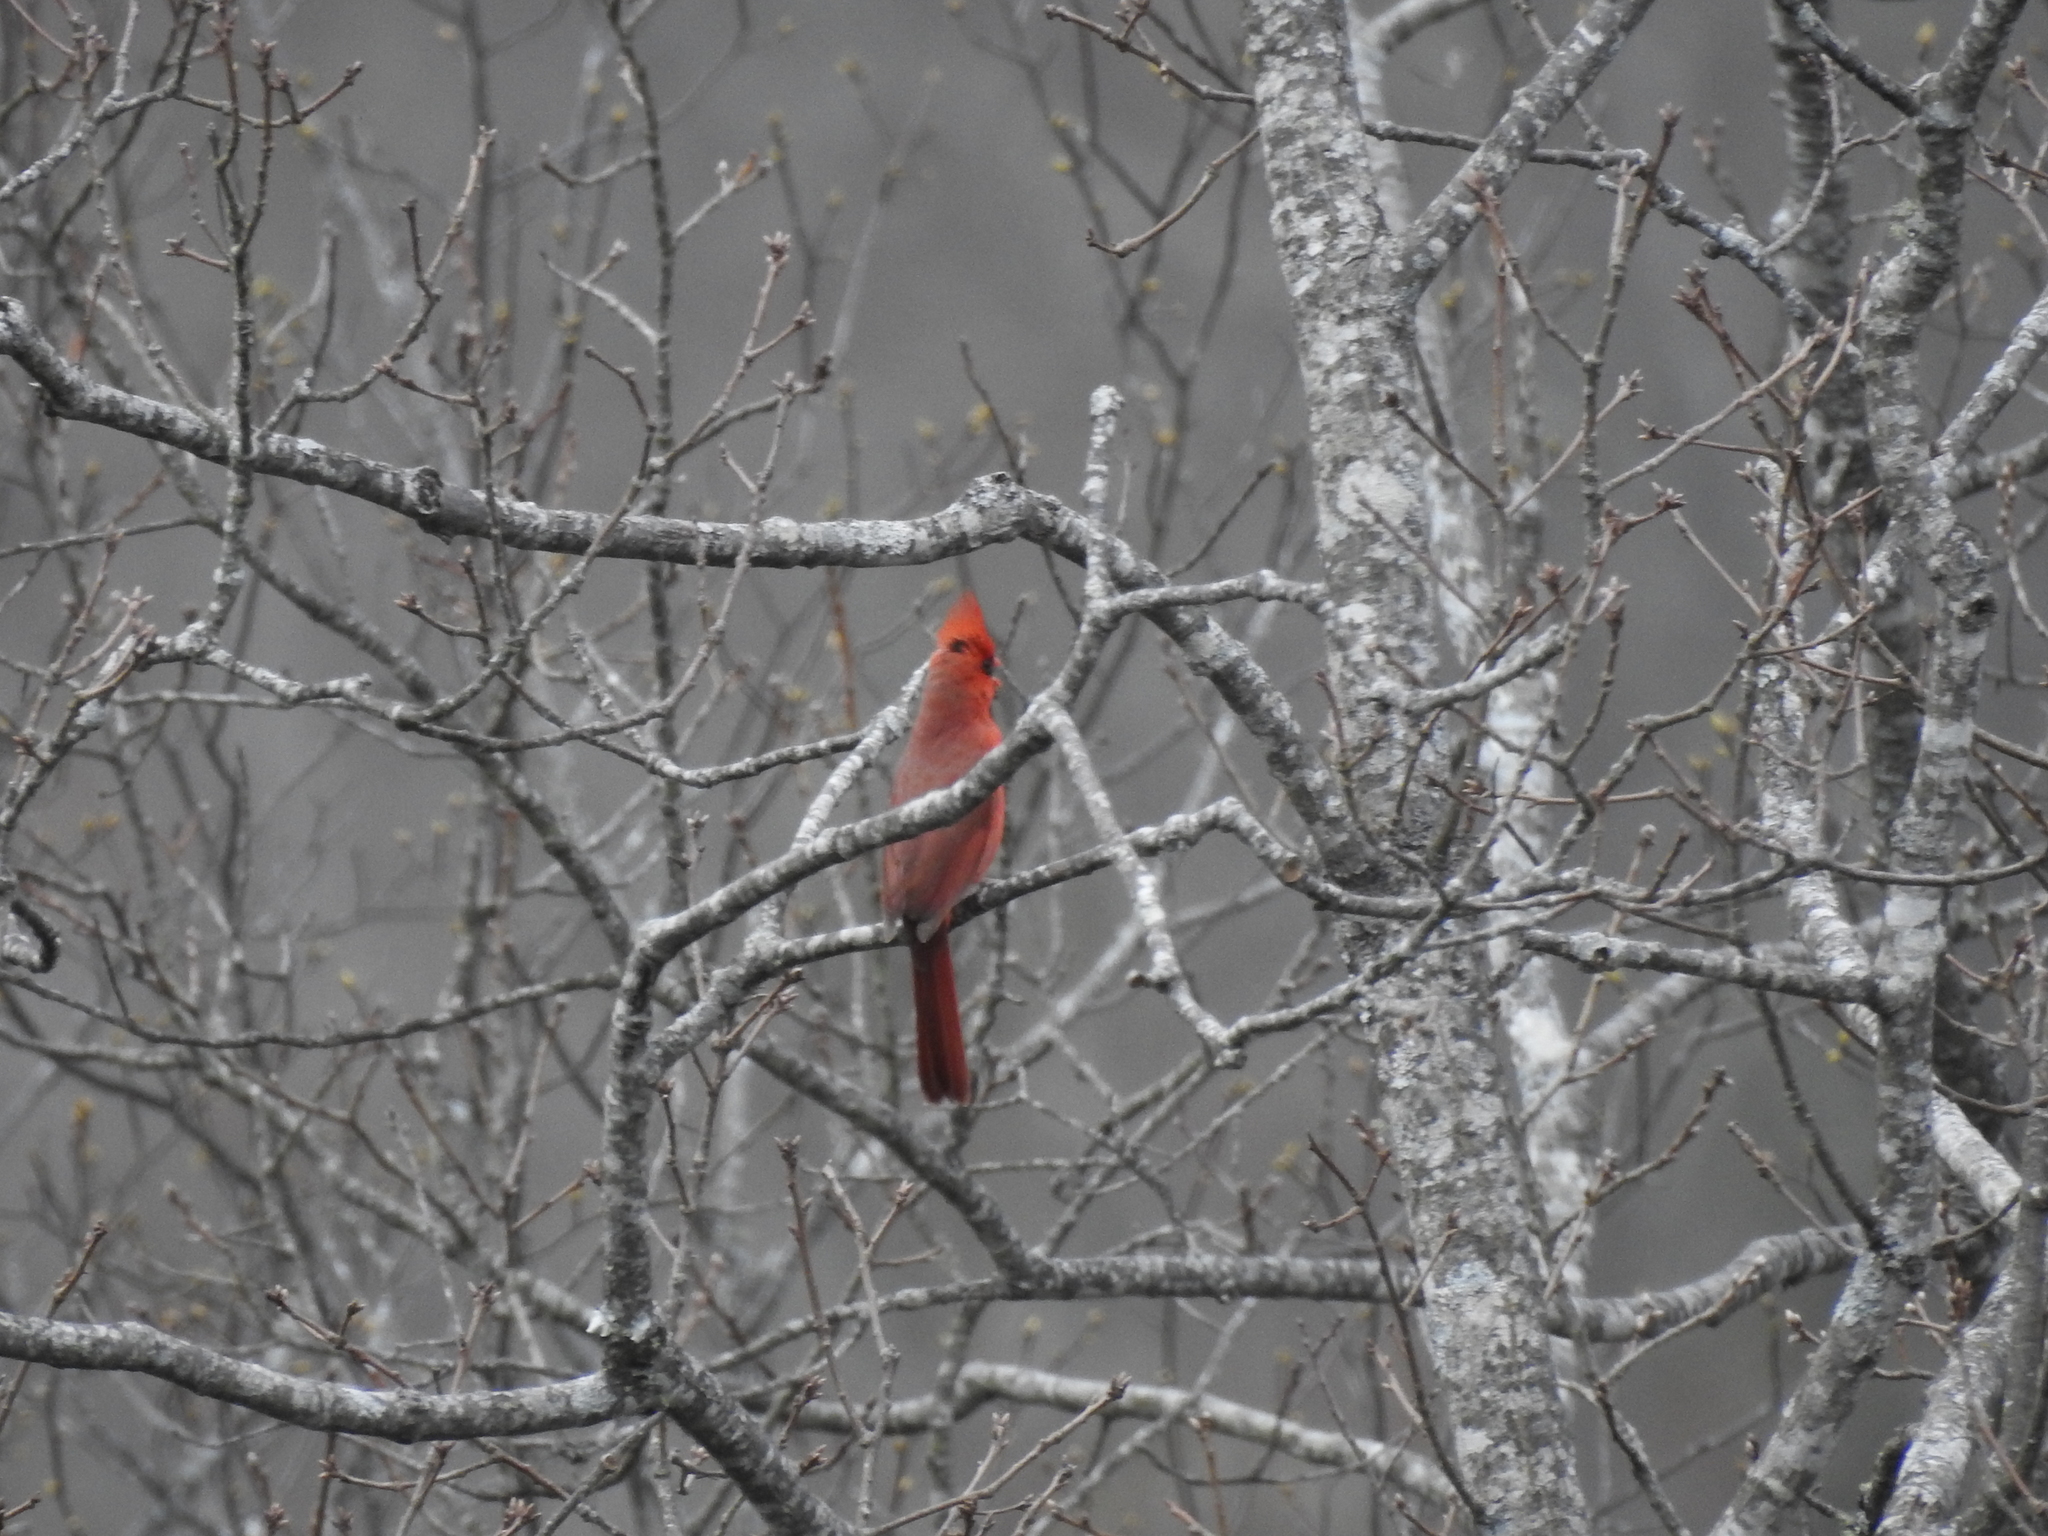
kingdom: Animalia
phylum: Chordata
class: Aves
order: Passeriformes
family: Cardinalidae
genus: Cardinalis
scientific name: Cardinalis cardinalis
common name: Northern cardinal
